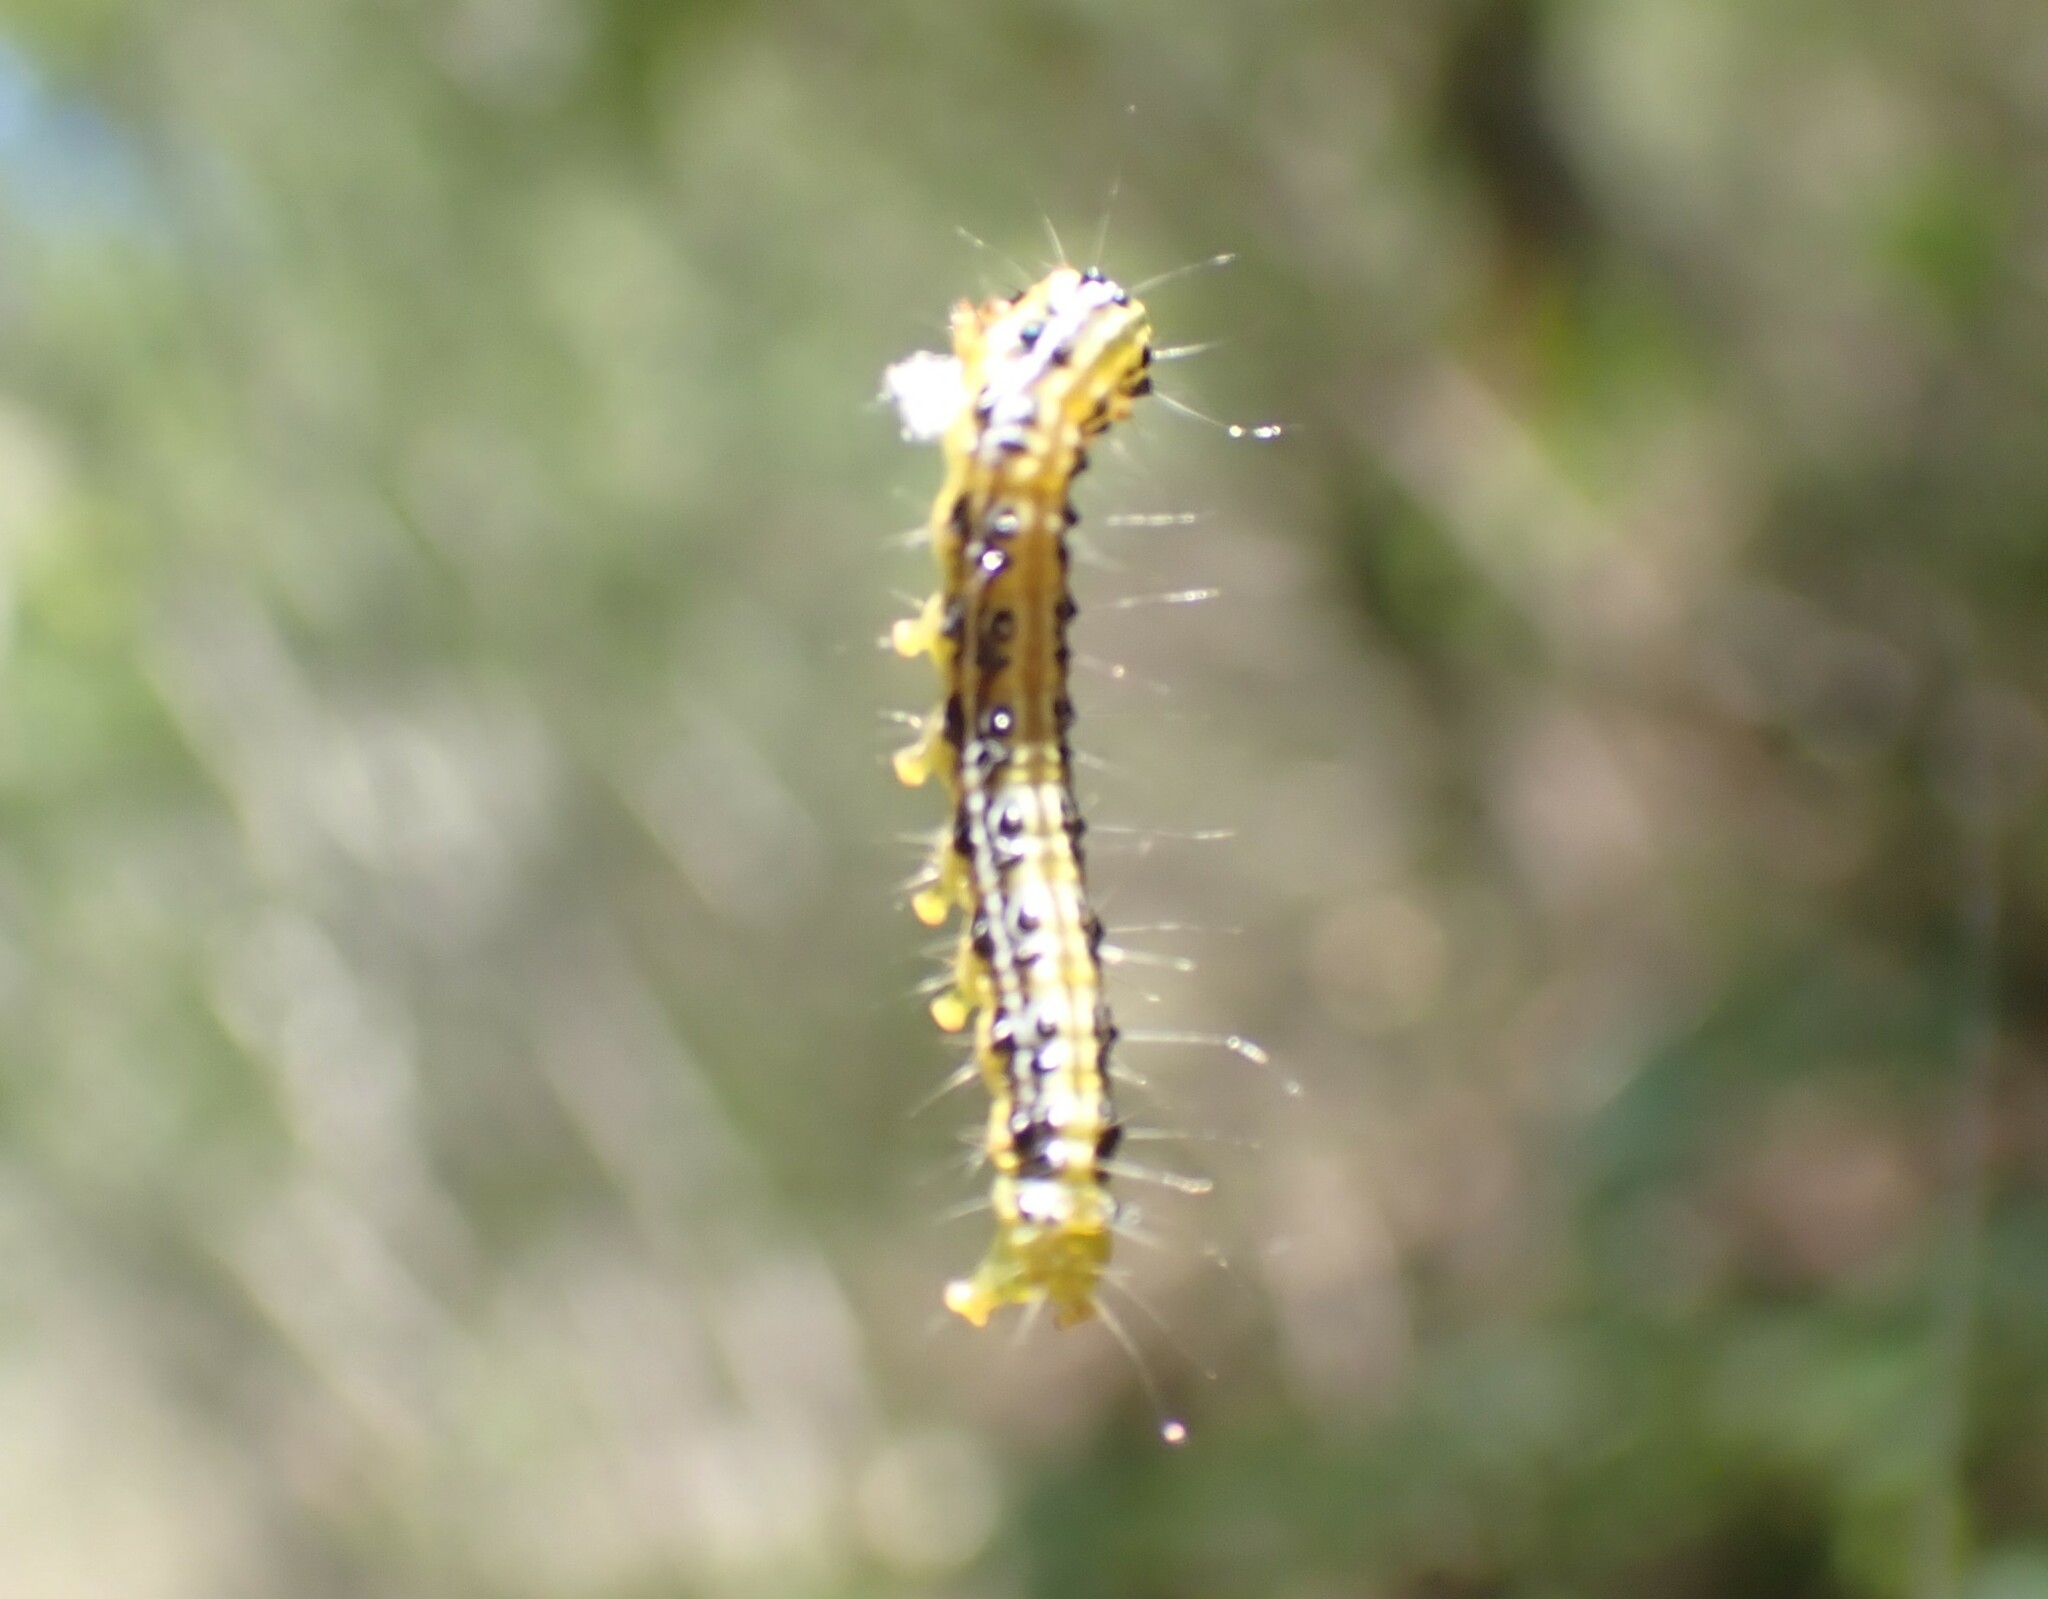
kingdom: Animalia
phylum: Arthropoda
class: Insecta
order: Lepidoptera
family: Crambidae
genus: Cydalima
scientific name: Cydalima perspectalis
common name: Box tree moth
